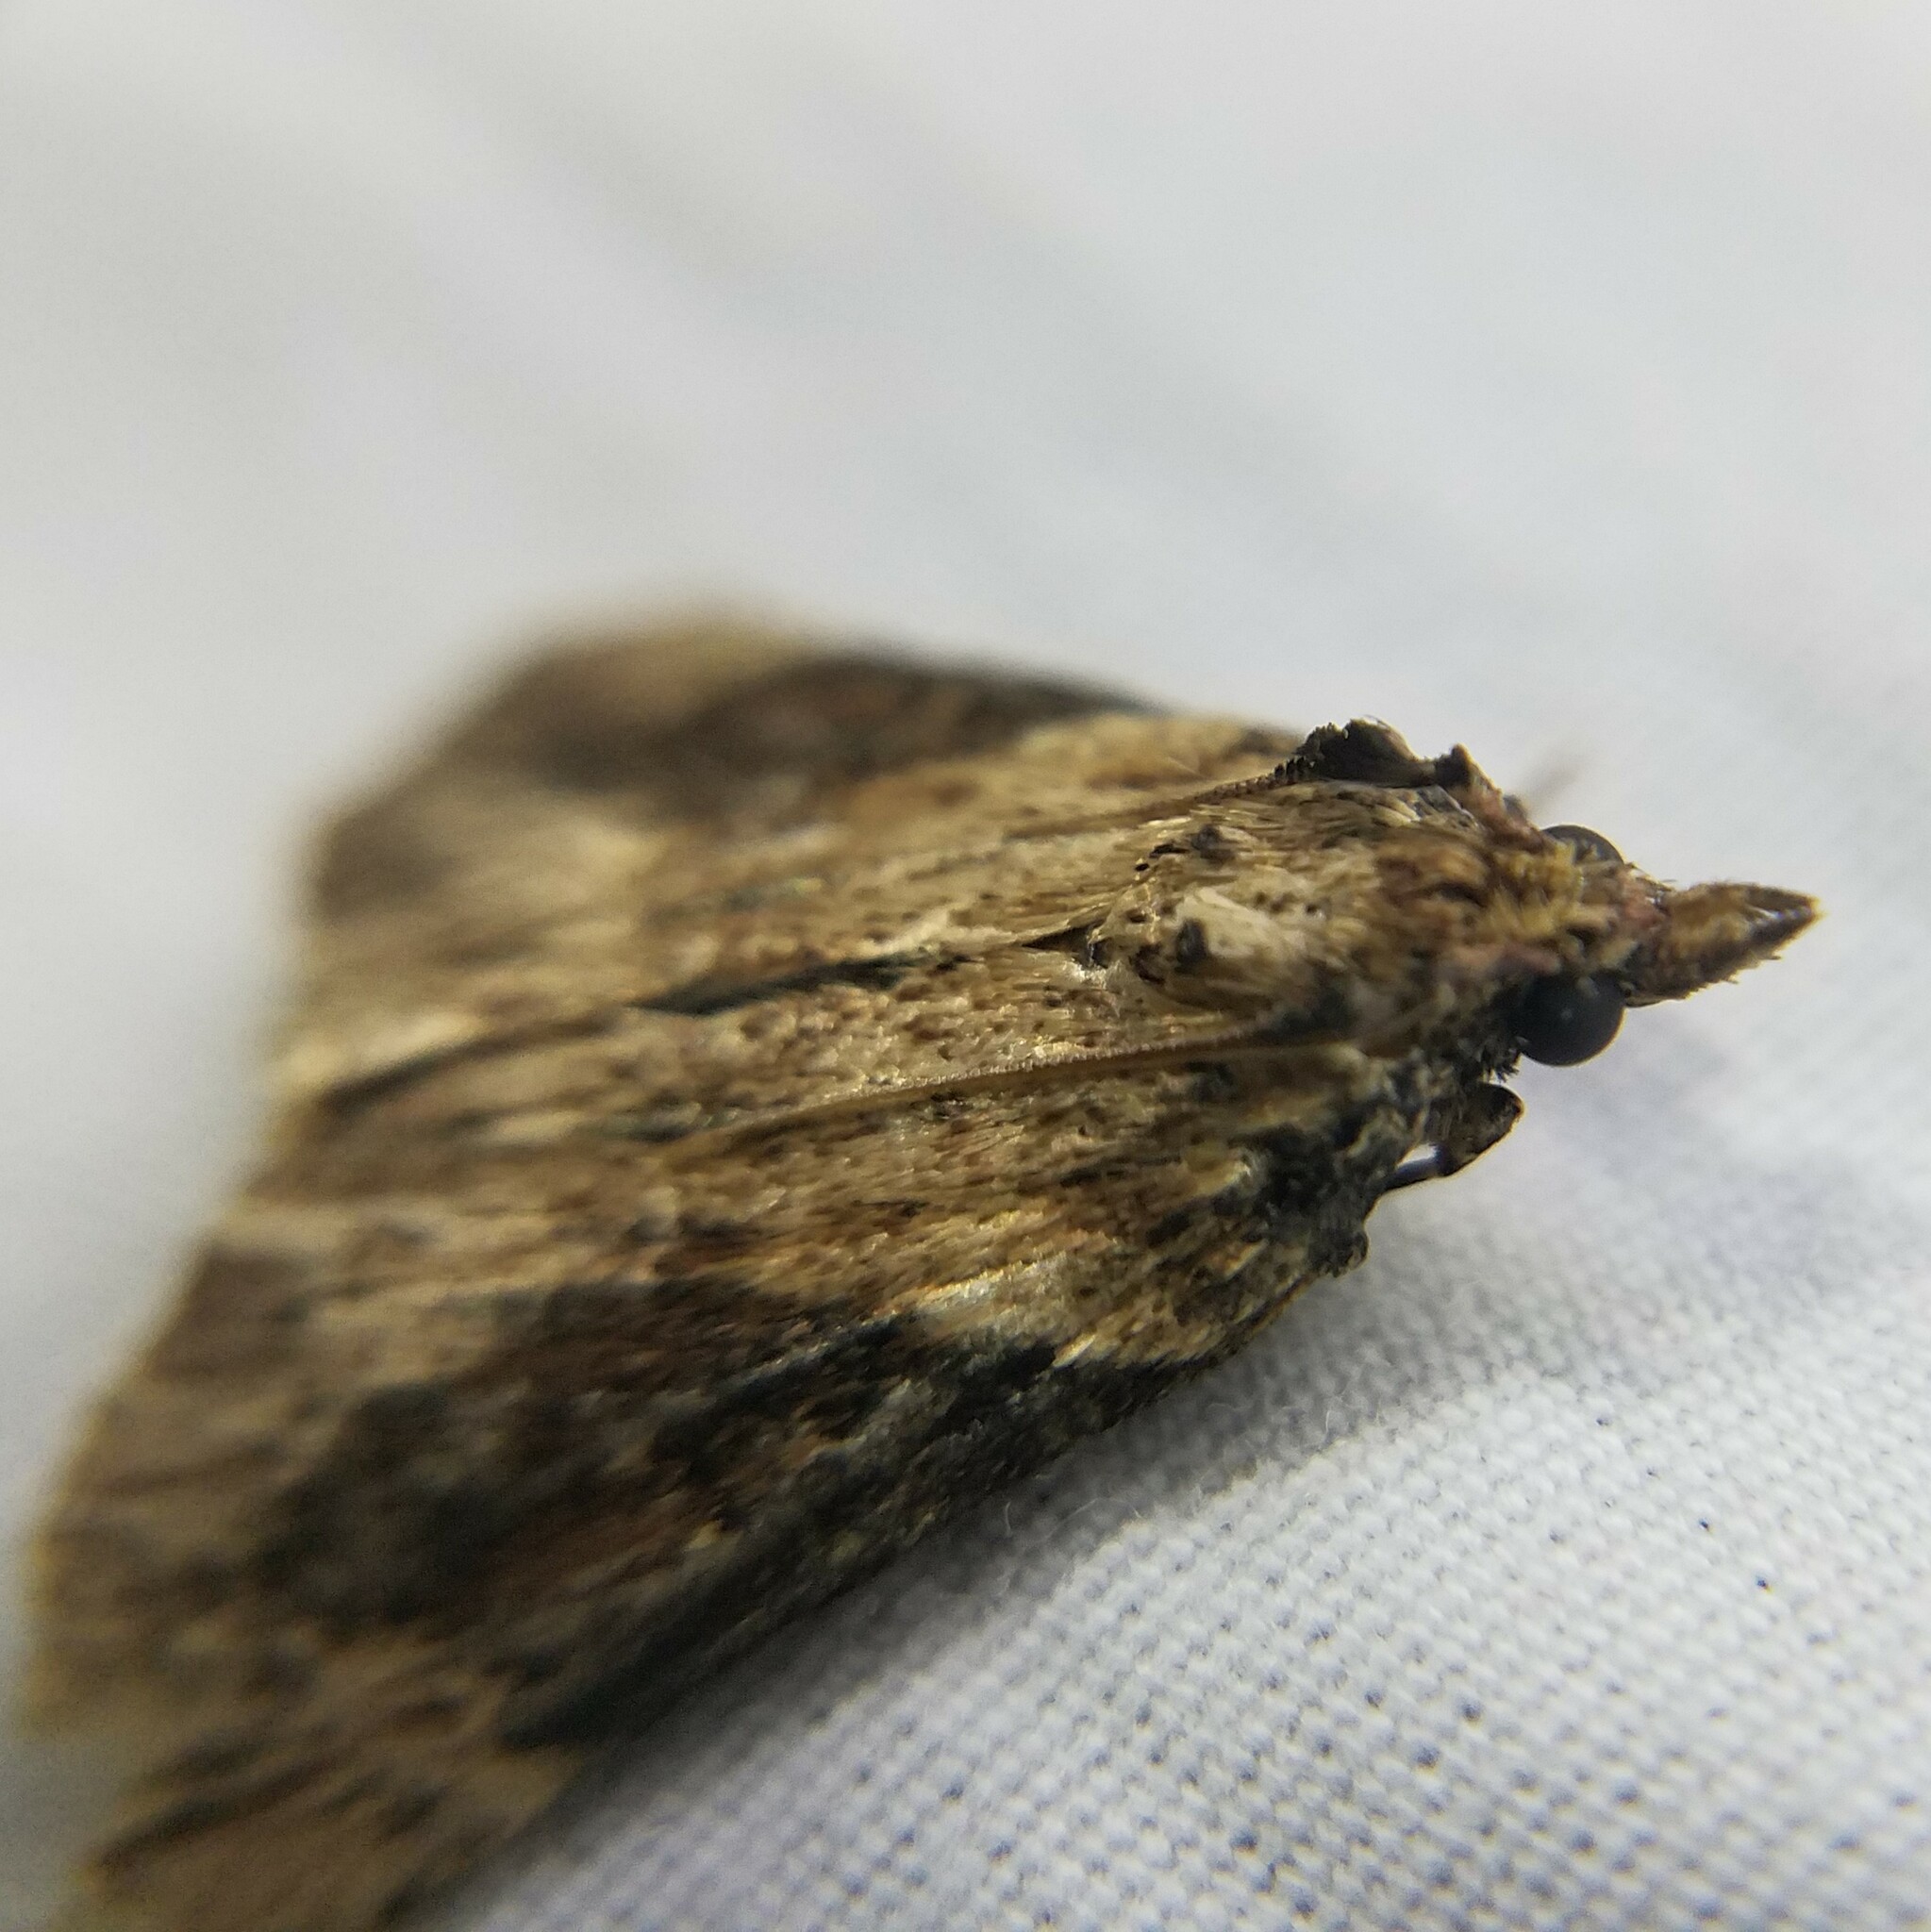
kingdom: Animalia
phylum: Arthropoda
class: Insecta
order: Lepidoptera
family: Pyralidae
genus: Omphalocera
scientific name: Omphalocera cariosa
